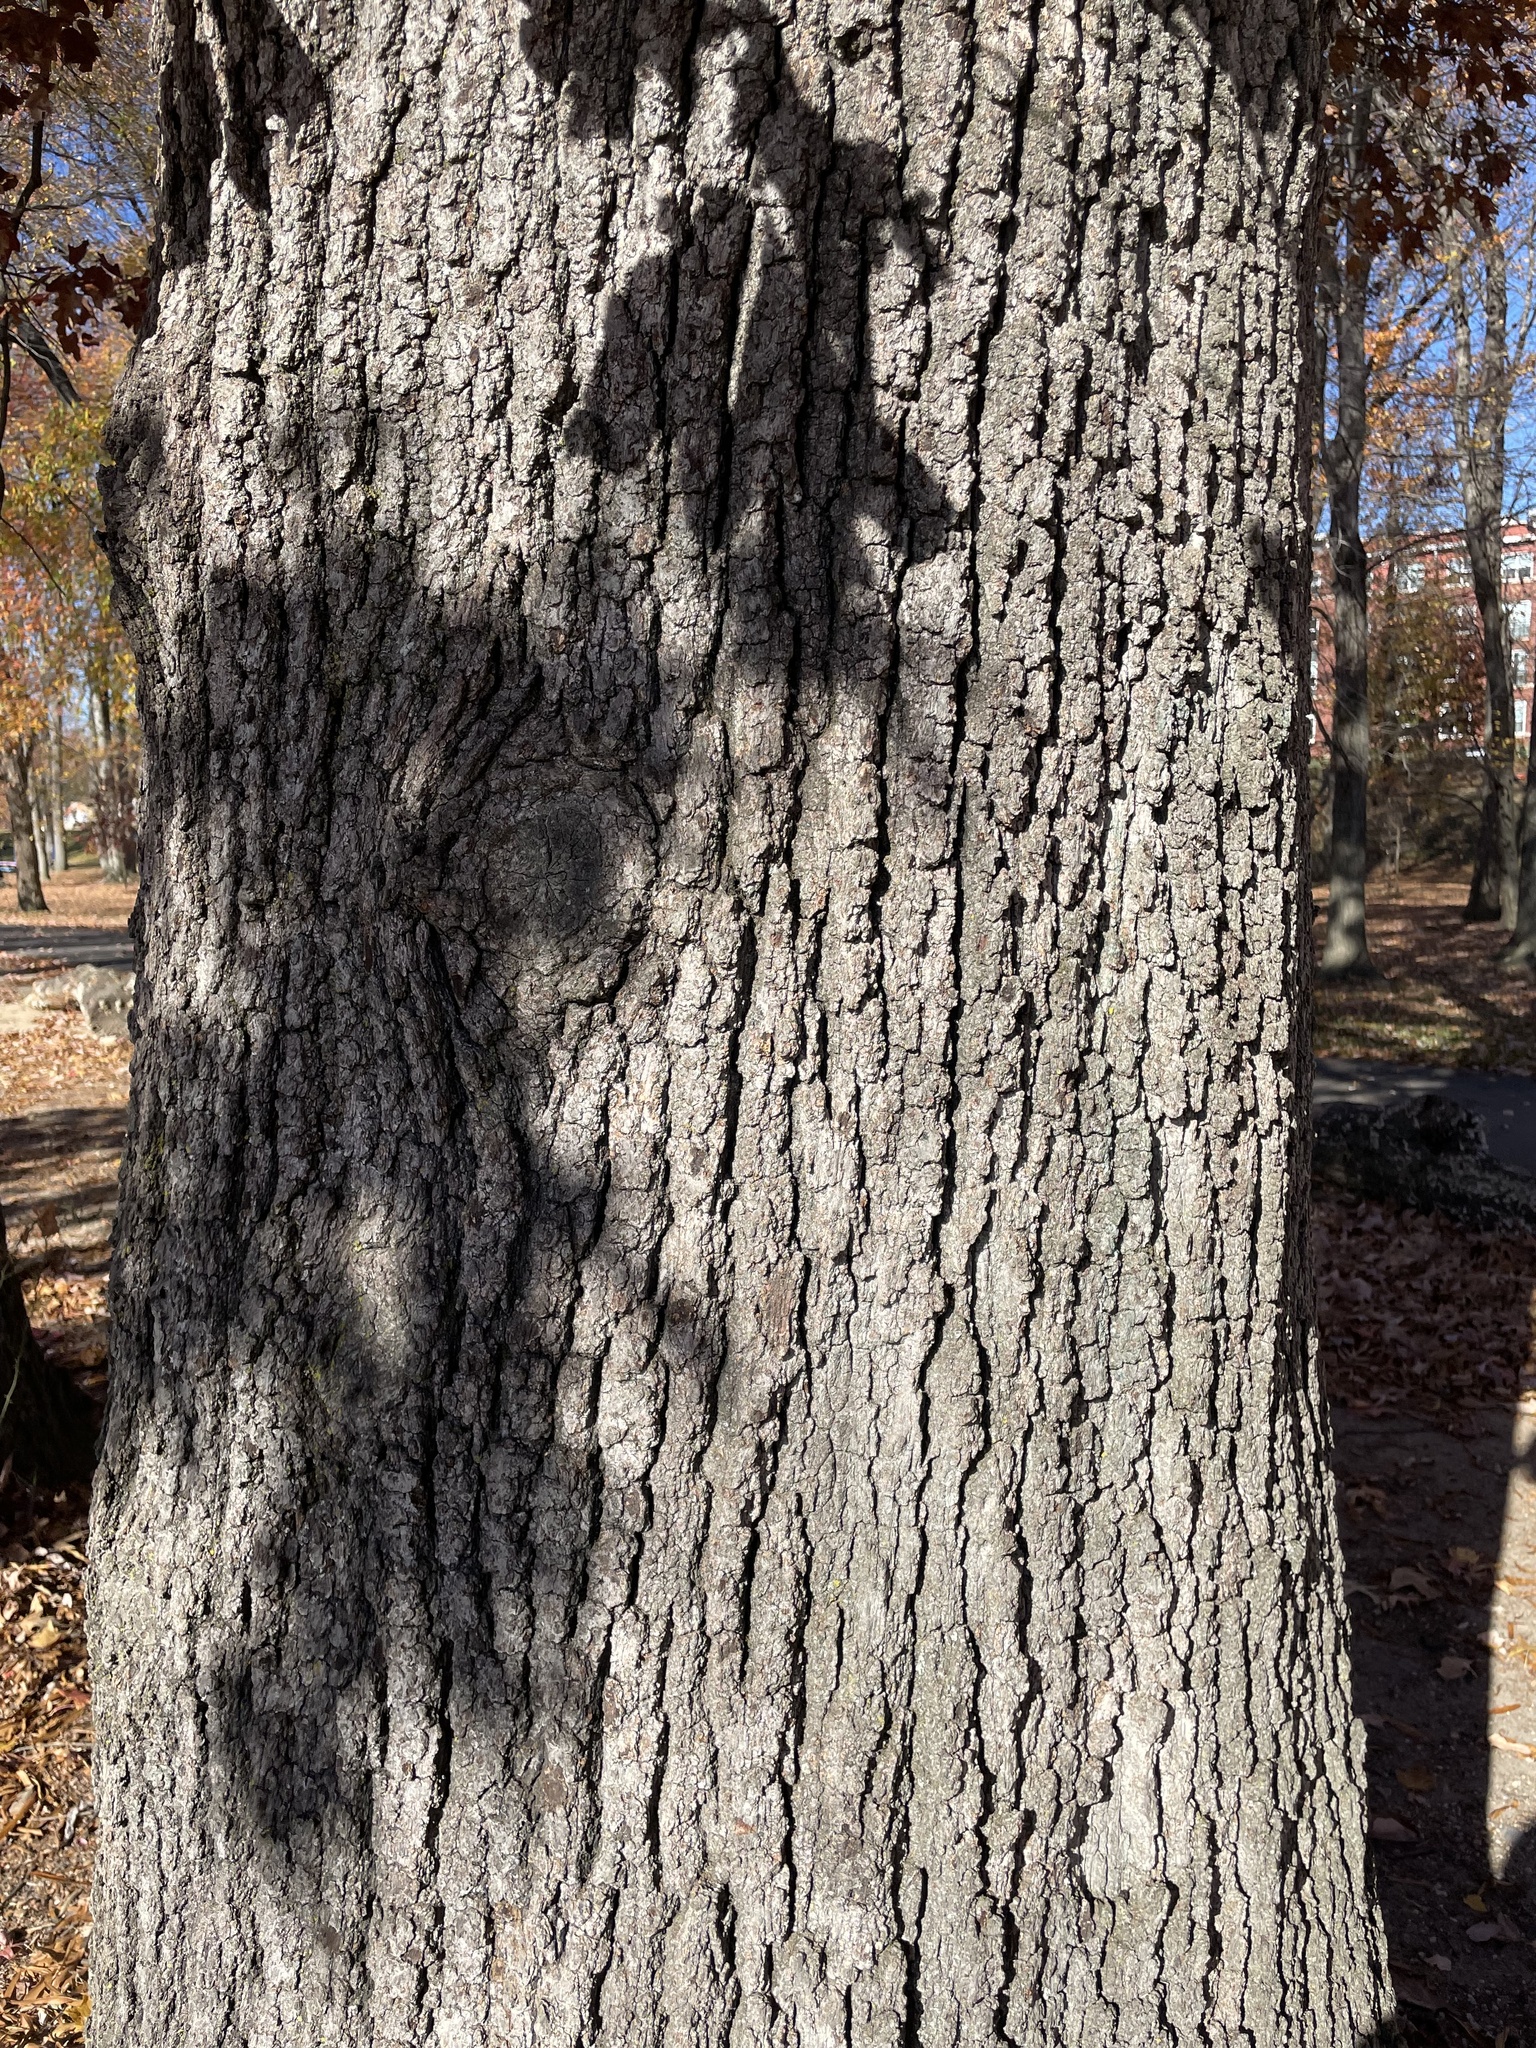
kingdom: Plantae
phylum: Tracheophyta
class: Magnoliopsida
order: Fagales
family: Fagaceae
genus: Quercus
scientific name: Quercus falcata
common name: Southern red oak
